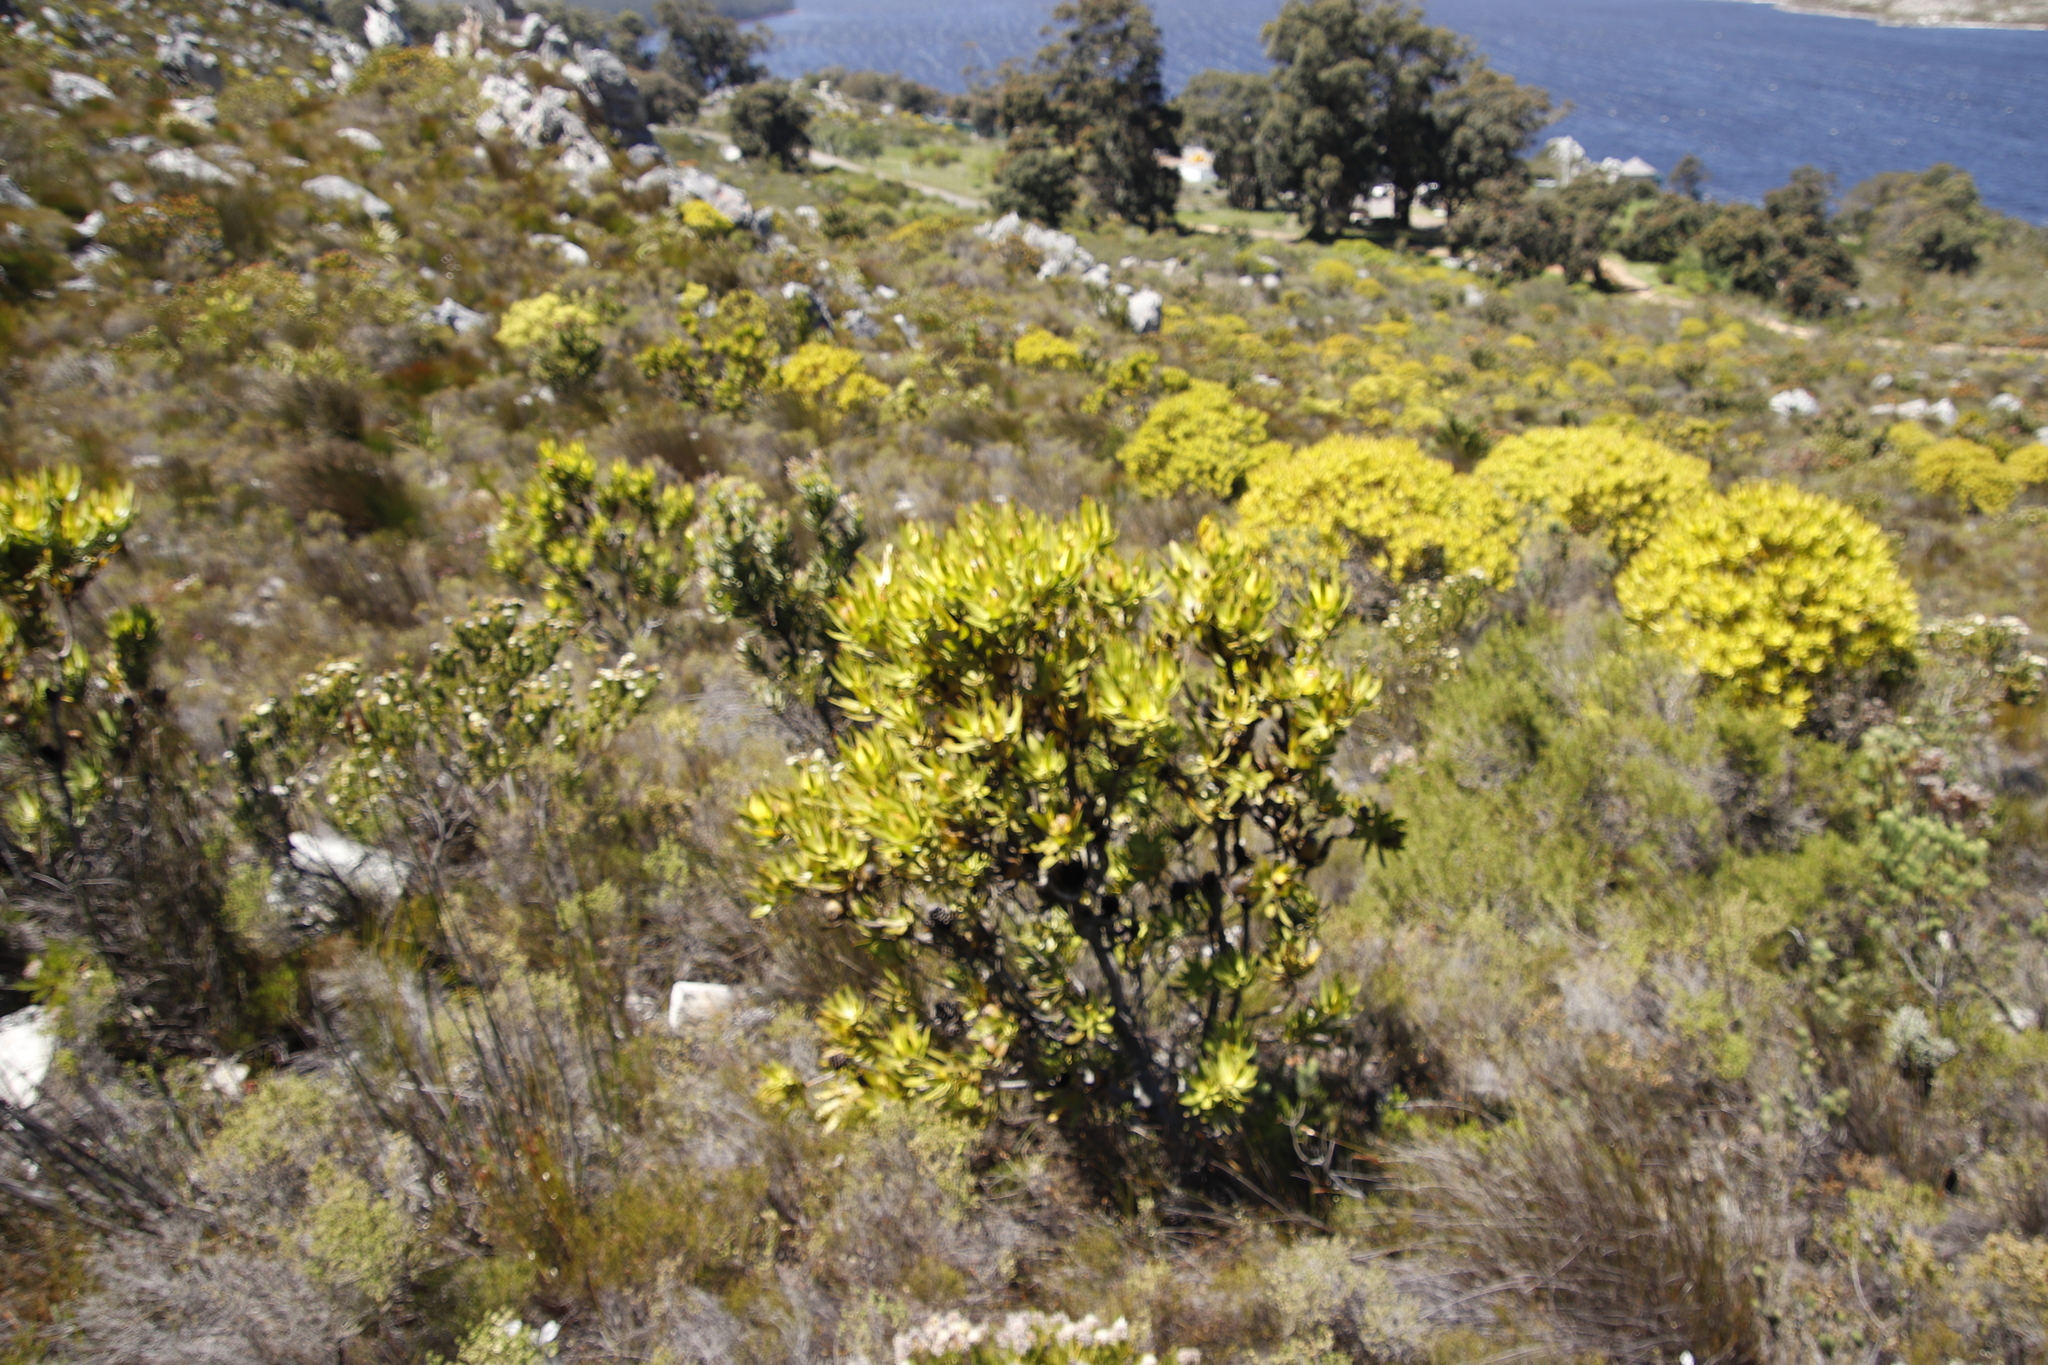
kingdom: Plantae
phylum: Tracheophyta
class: Magnoliopsida
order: Proteales
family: Proteaceae
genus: Leucadendron
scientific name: Leucadendron laureolum
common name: Golden sunshinebush
